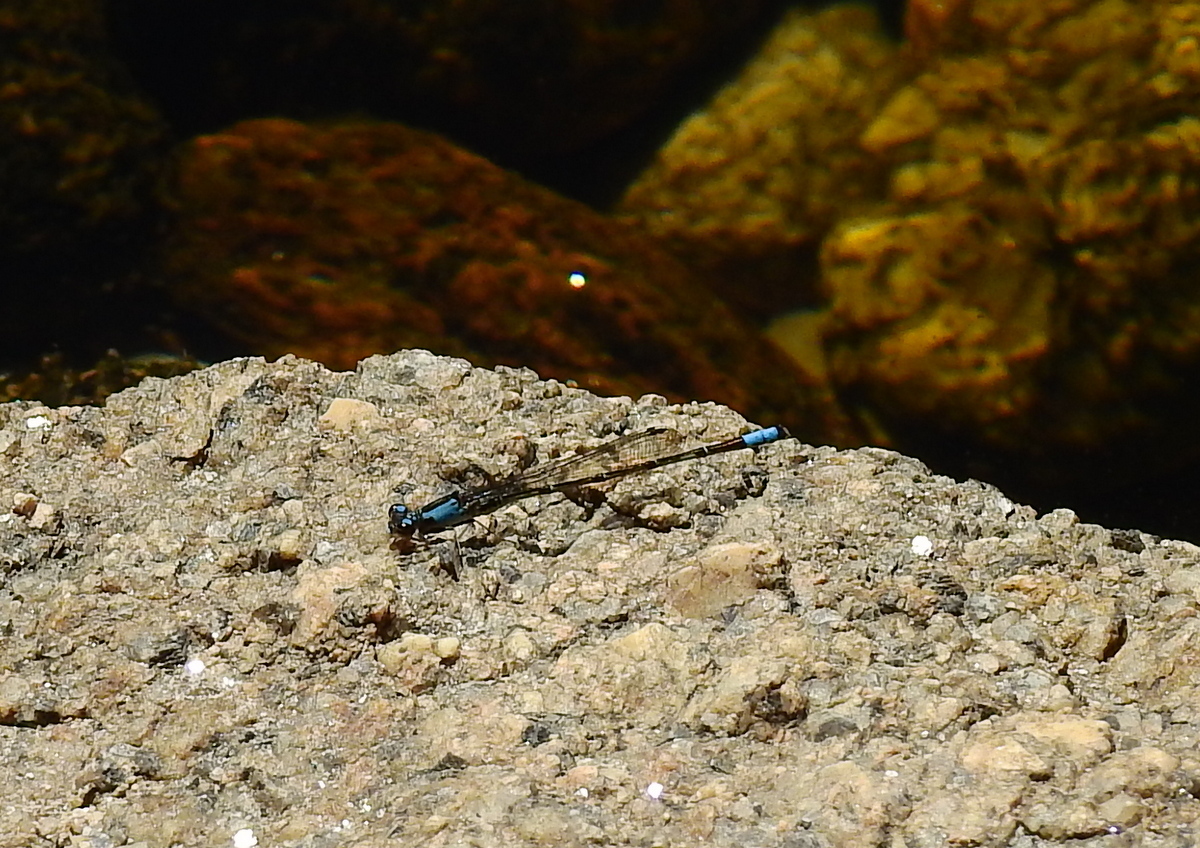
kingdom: Animalia
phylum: Arthropoda
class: Insecta
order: Odonata
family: Coenagrionidae
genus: Oxyagrion
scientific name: Oxyagrion ablutum
